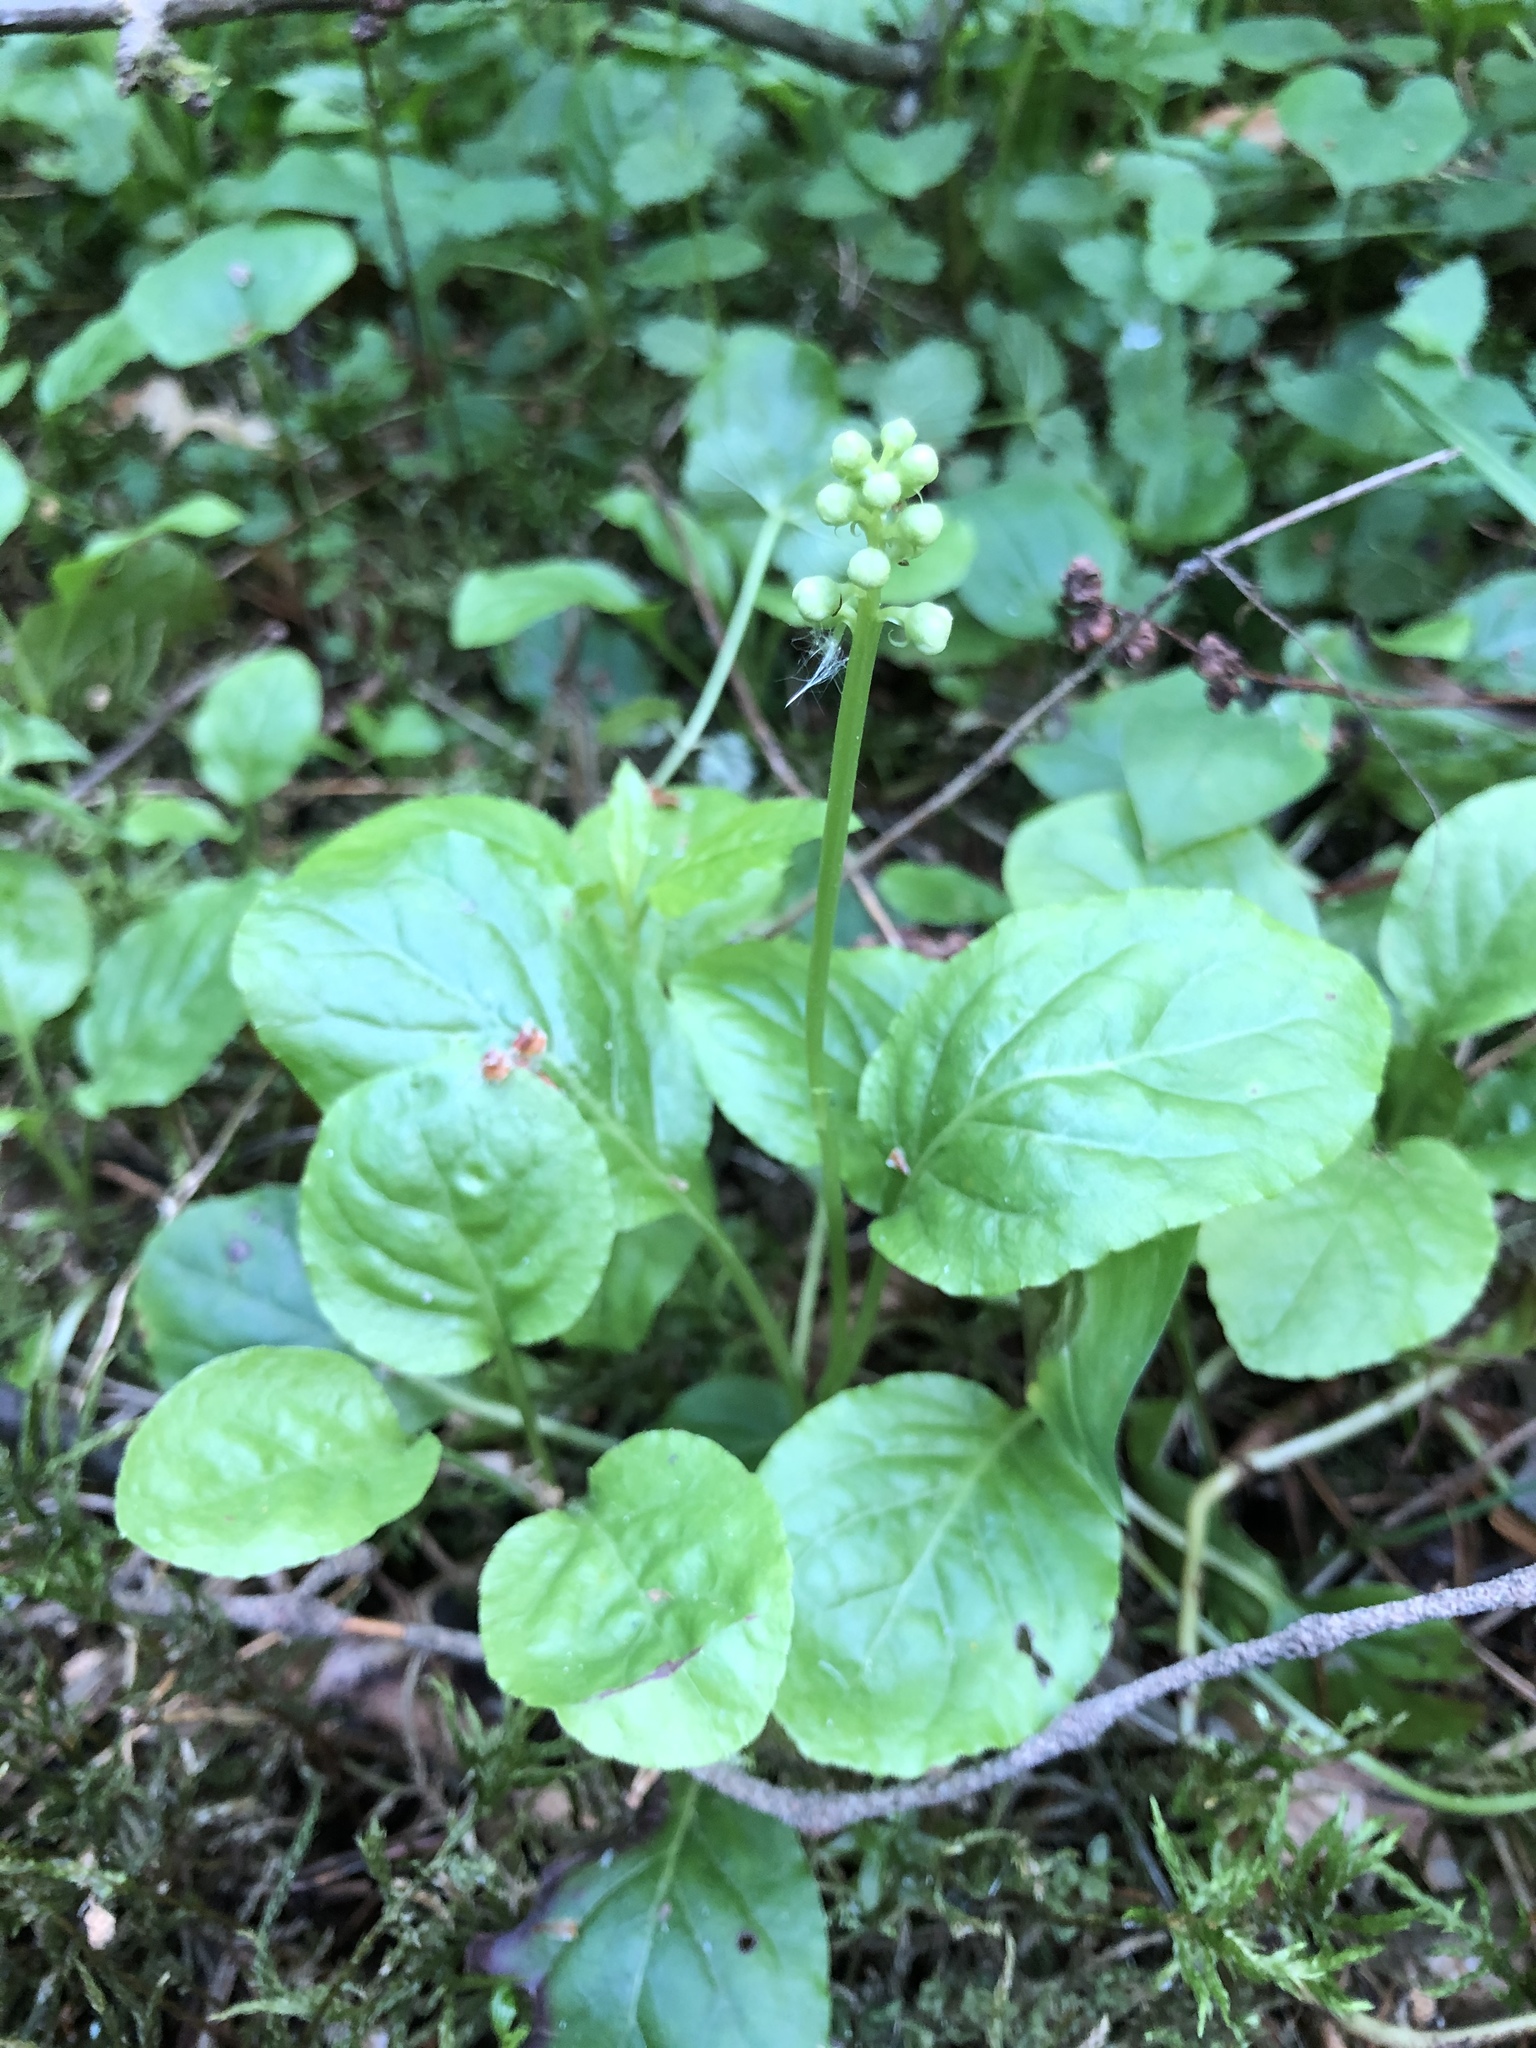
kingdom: Plantae
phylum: Tracheophyta
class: Magnoliopsida
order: Ericales
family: Ericaceae
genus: Pyrola
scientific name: Pyrola minor
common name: Common wintergreen
